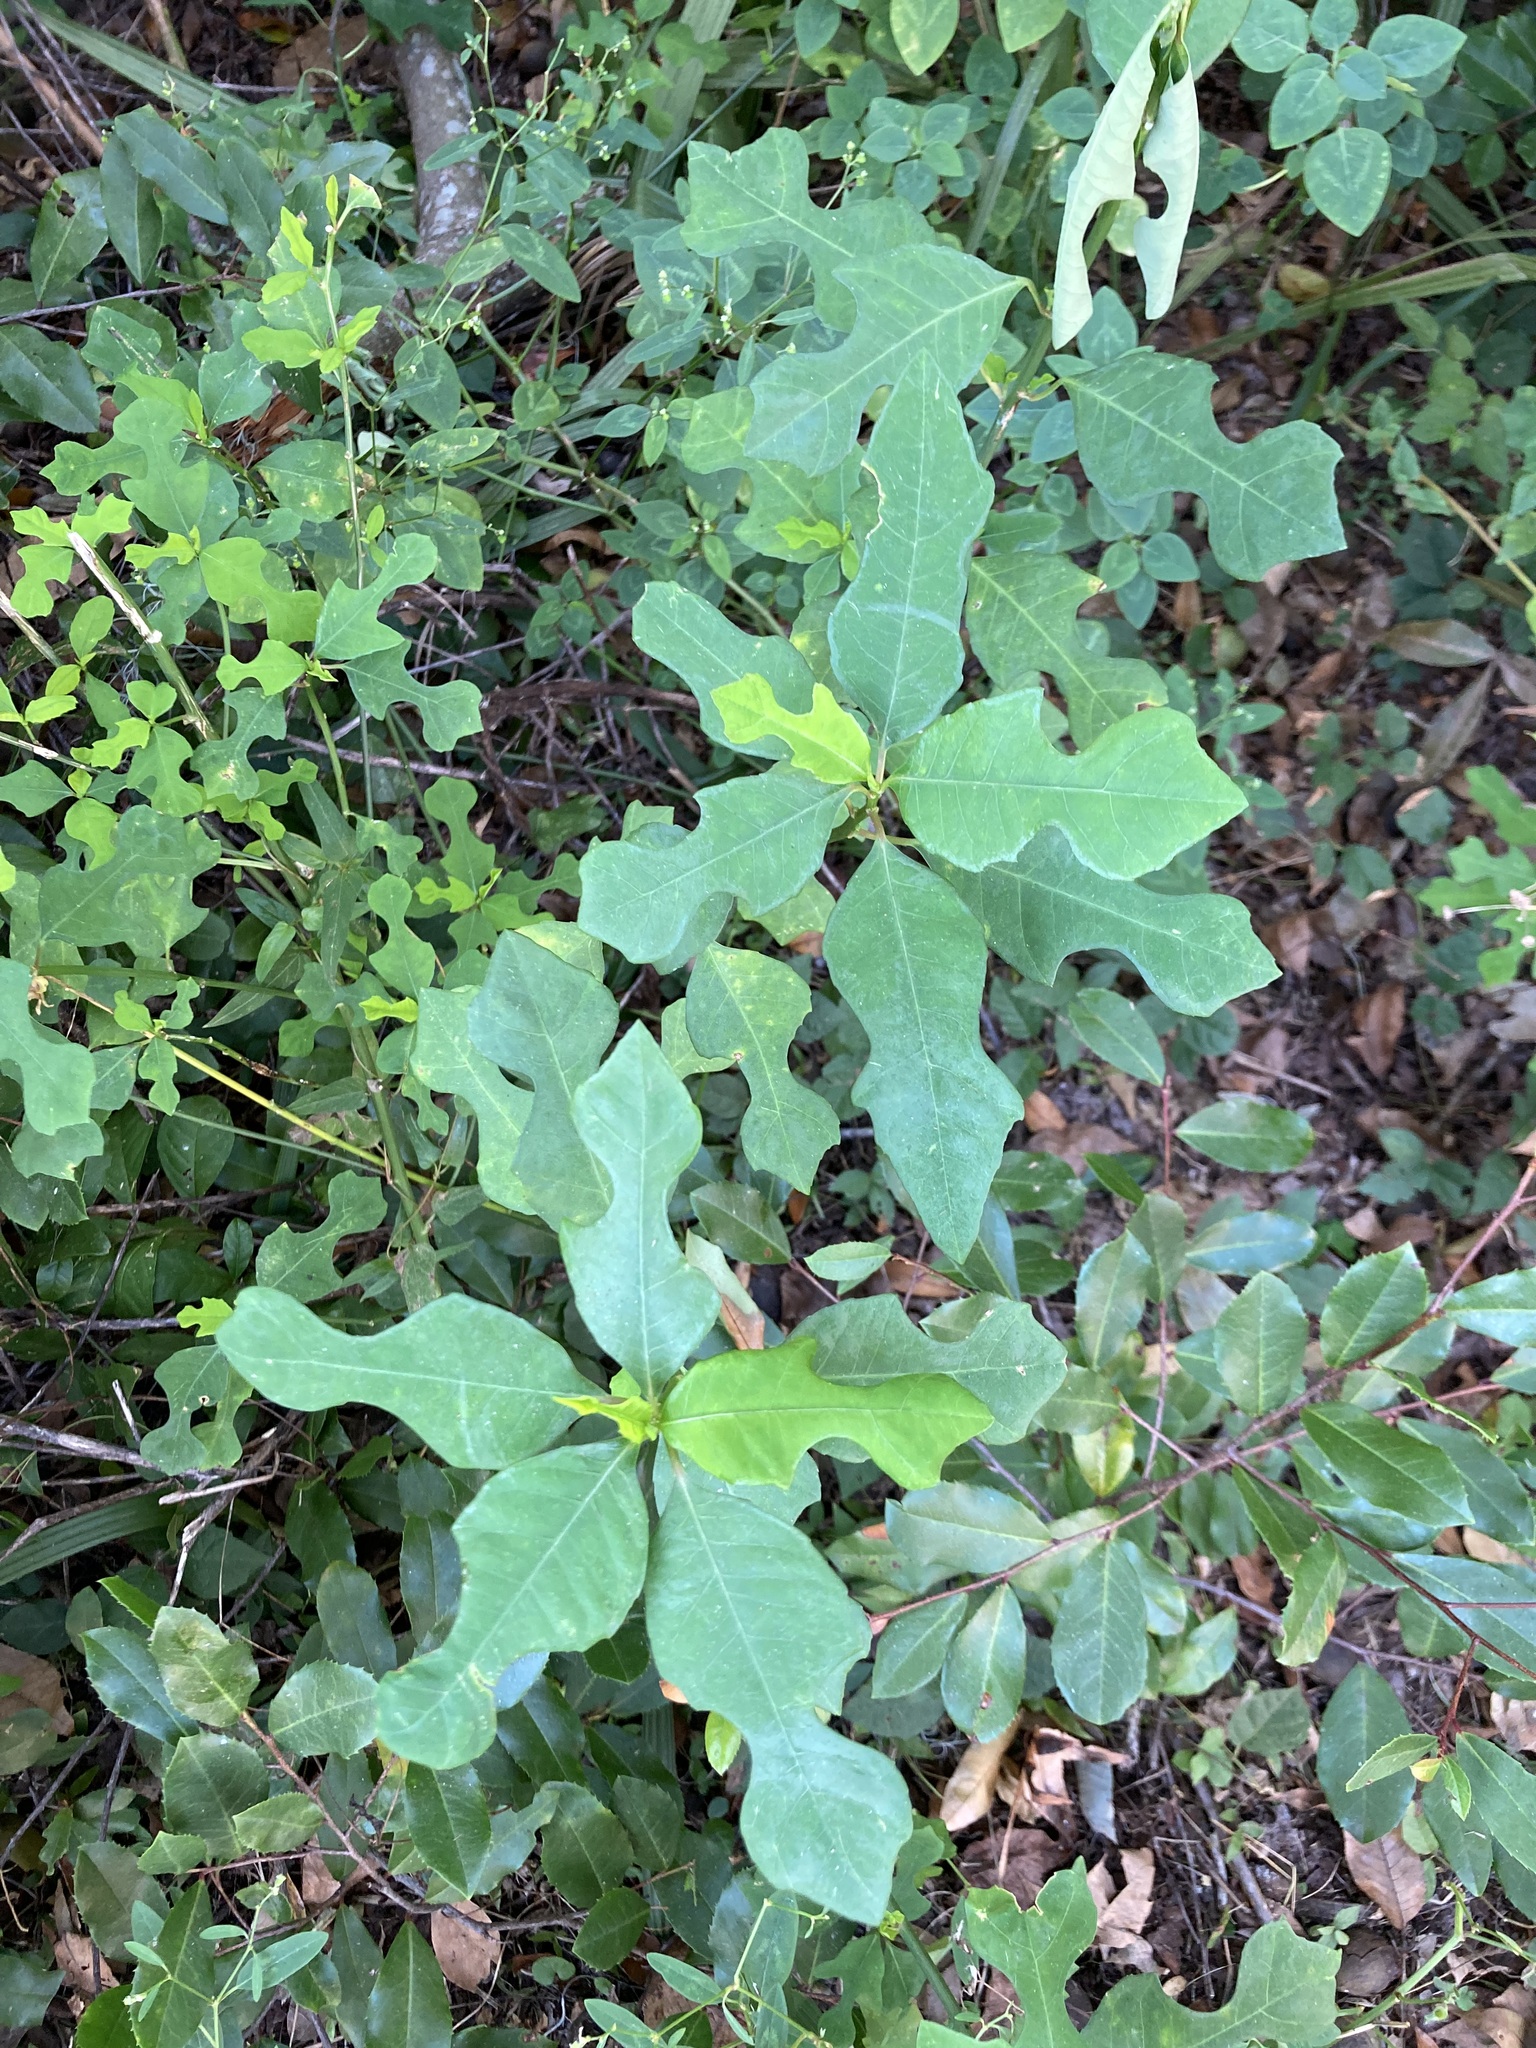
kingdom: Plantae
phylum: Tracheophyta
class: Magnoliopsida
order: Malpighiales
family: Euphorbiaceae
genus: Euphorbia
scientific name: Euphorbia heterophylla
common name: Mexican fireplant
